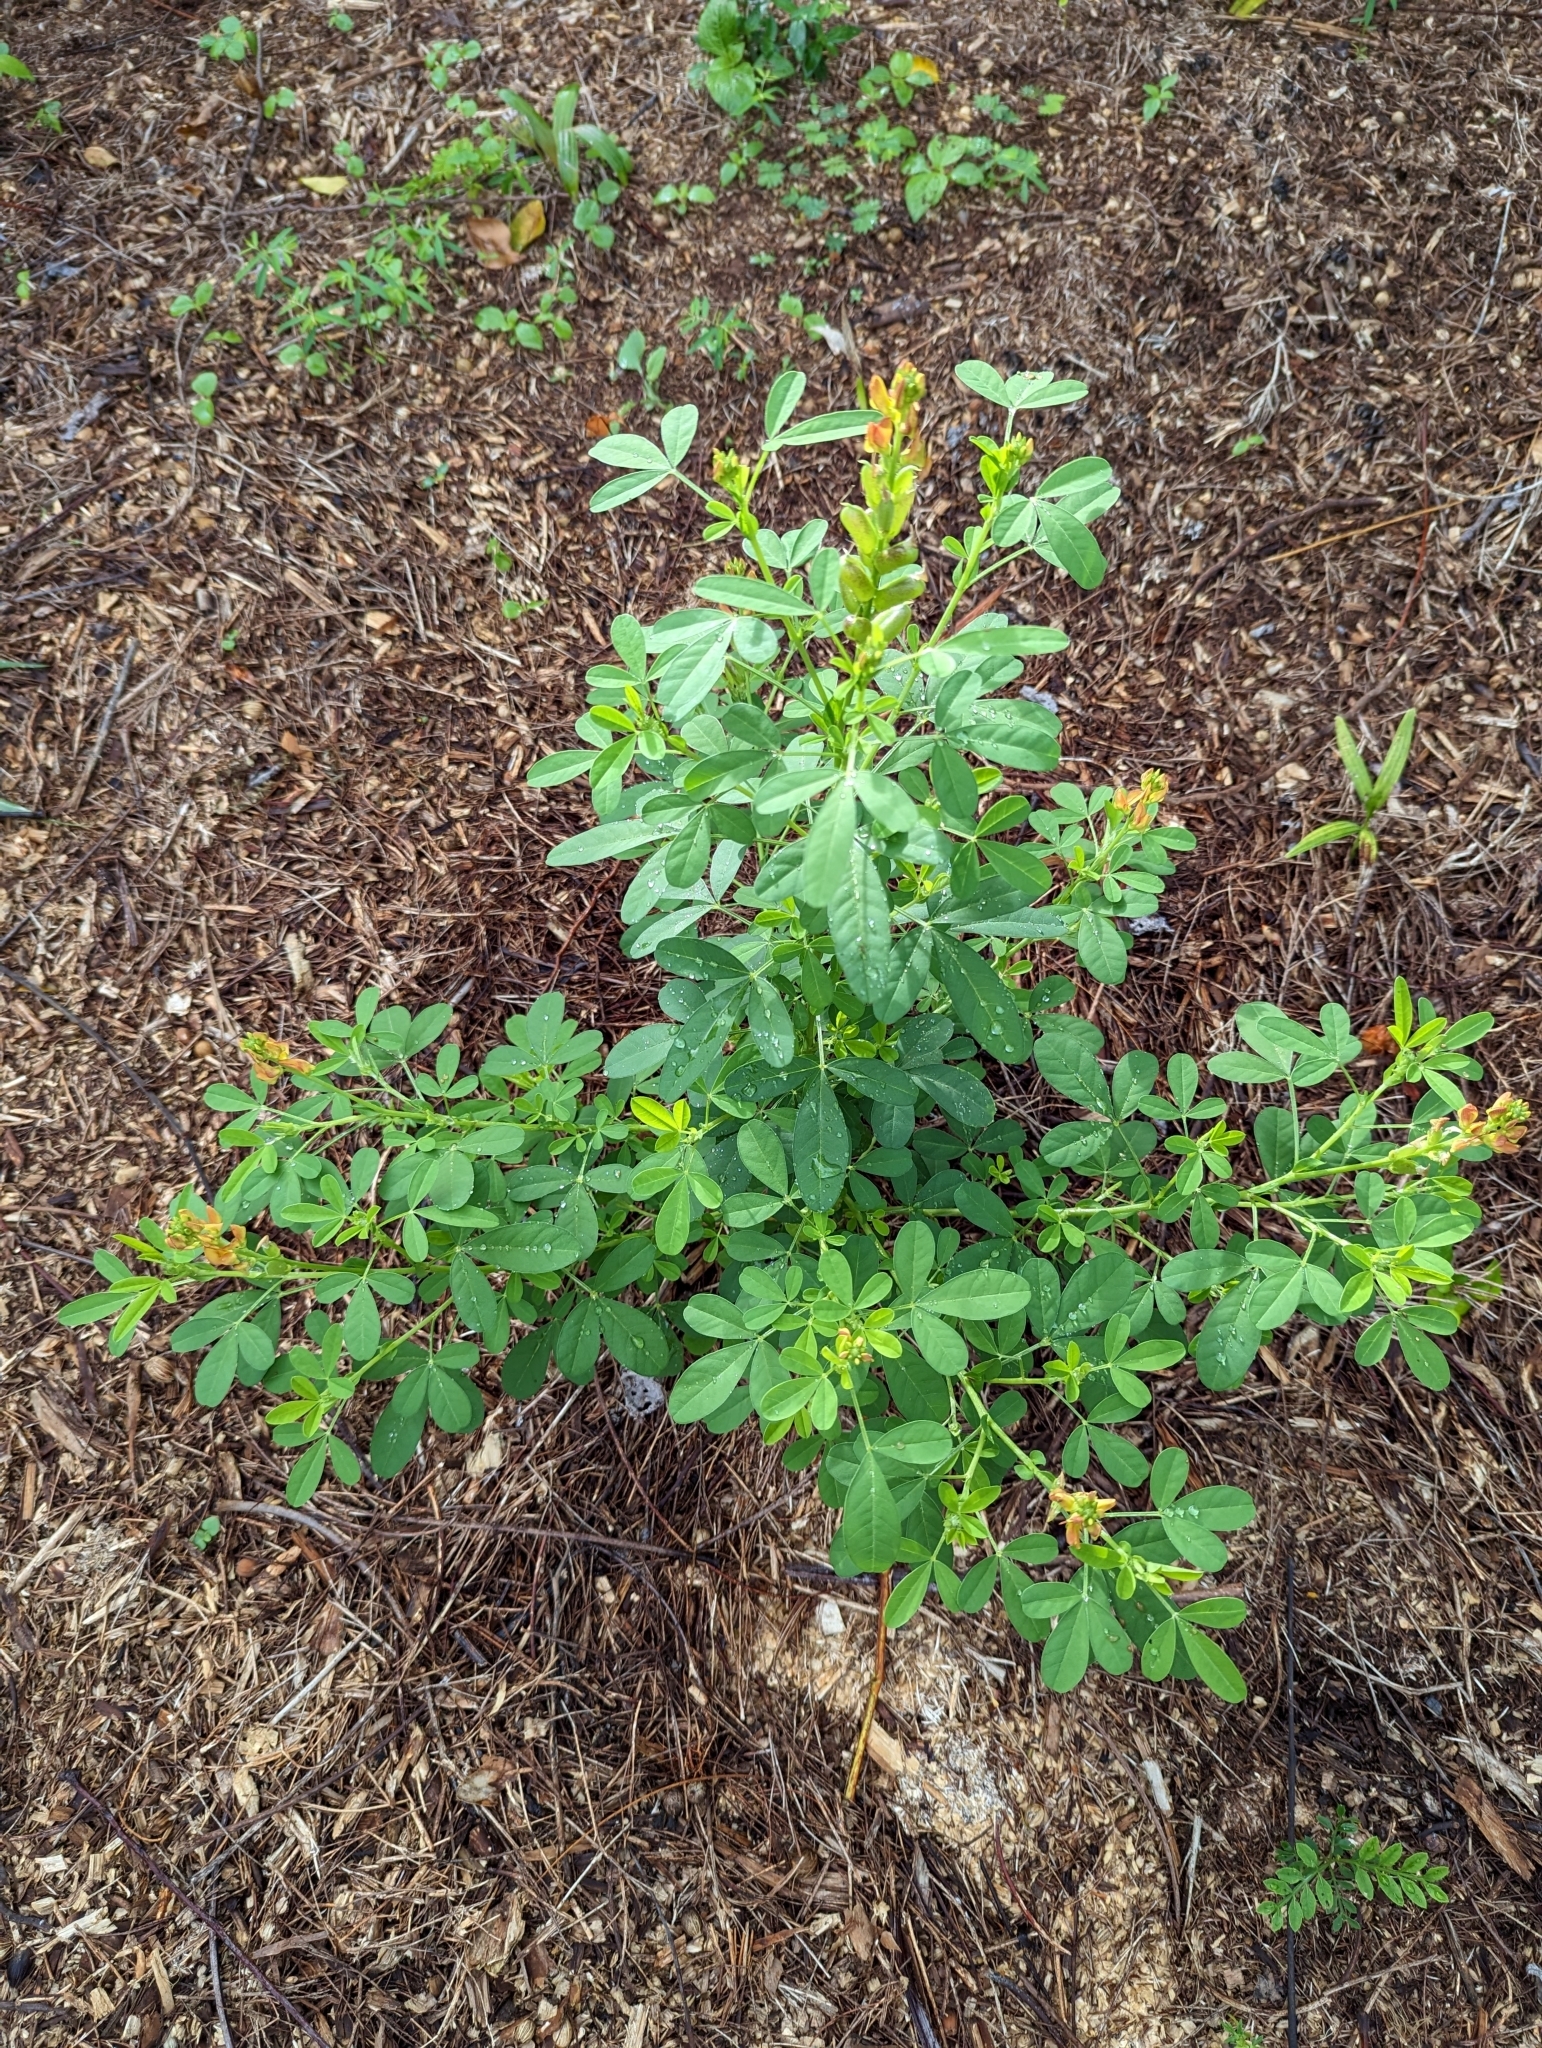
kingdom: Plantae
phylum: Tracheophyta
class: Magnoliopsida
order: Fabales
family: Fabaceae
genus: Crotalaria
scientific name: Crotalaria goreensis
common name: Gambia-pea
